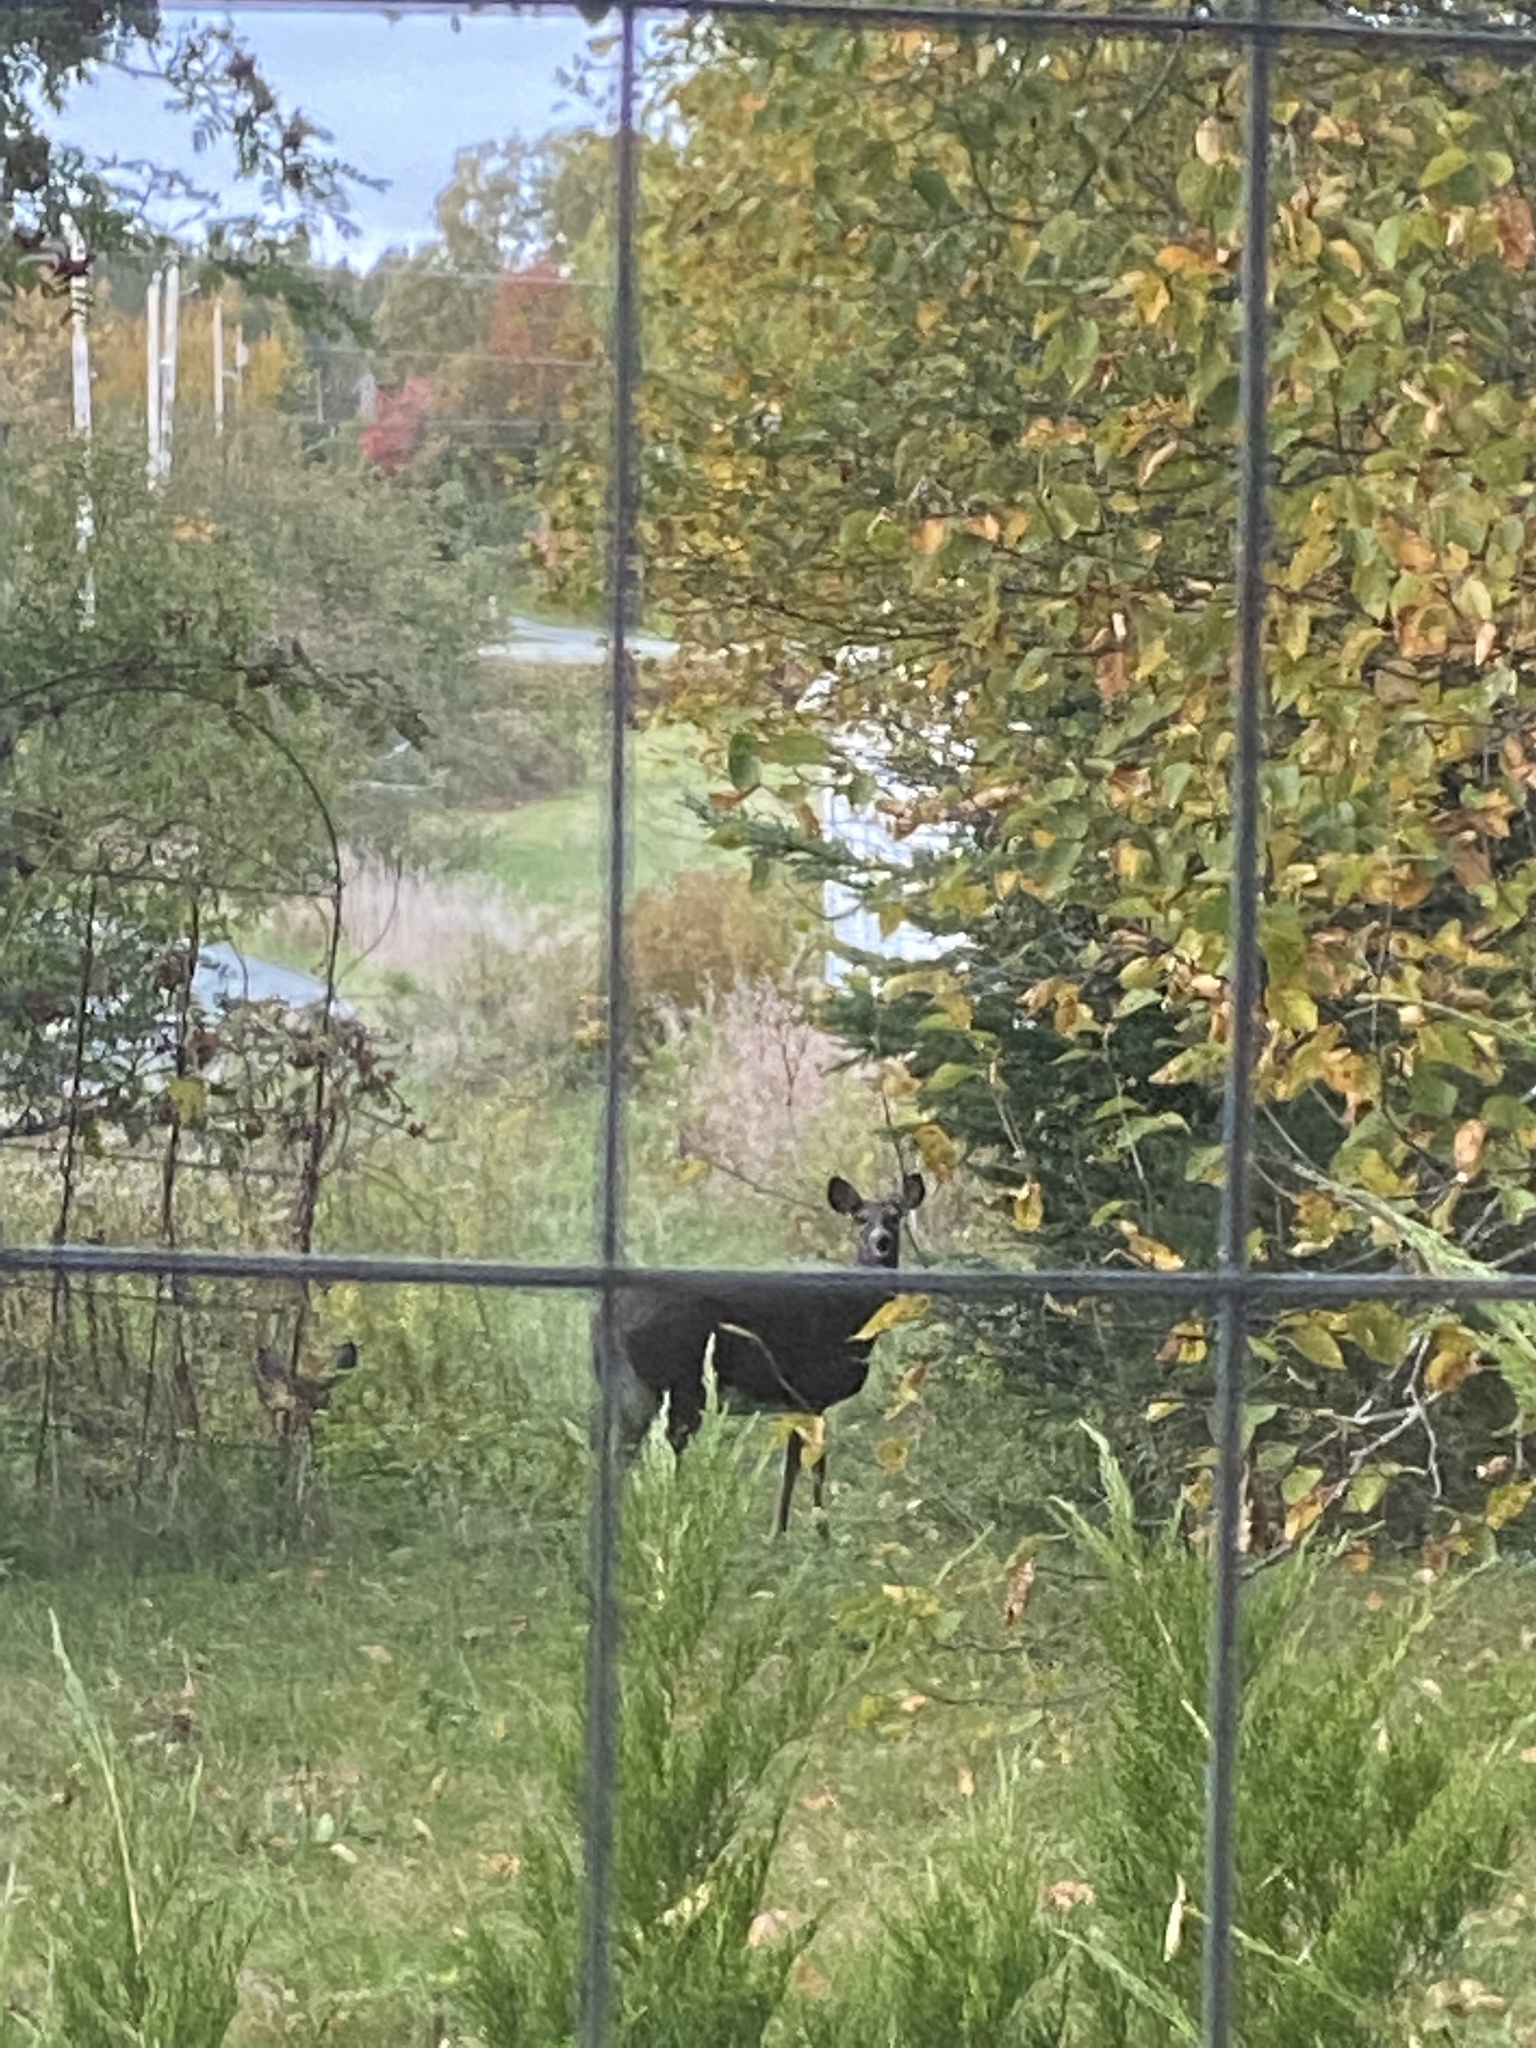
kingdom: Animalia
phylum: Chordata
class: Mammalia
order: Artiodactyla
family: Cervidae
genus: Odocoileus
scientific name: Odocoileus virginianus
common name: White-tailed deer
